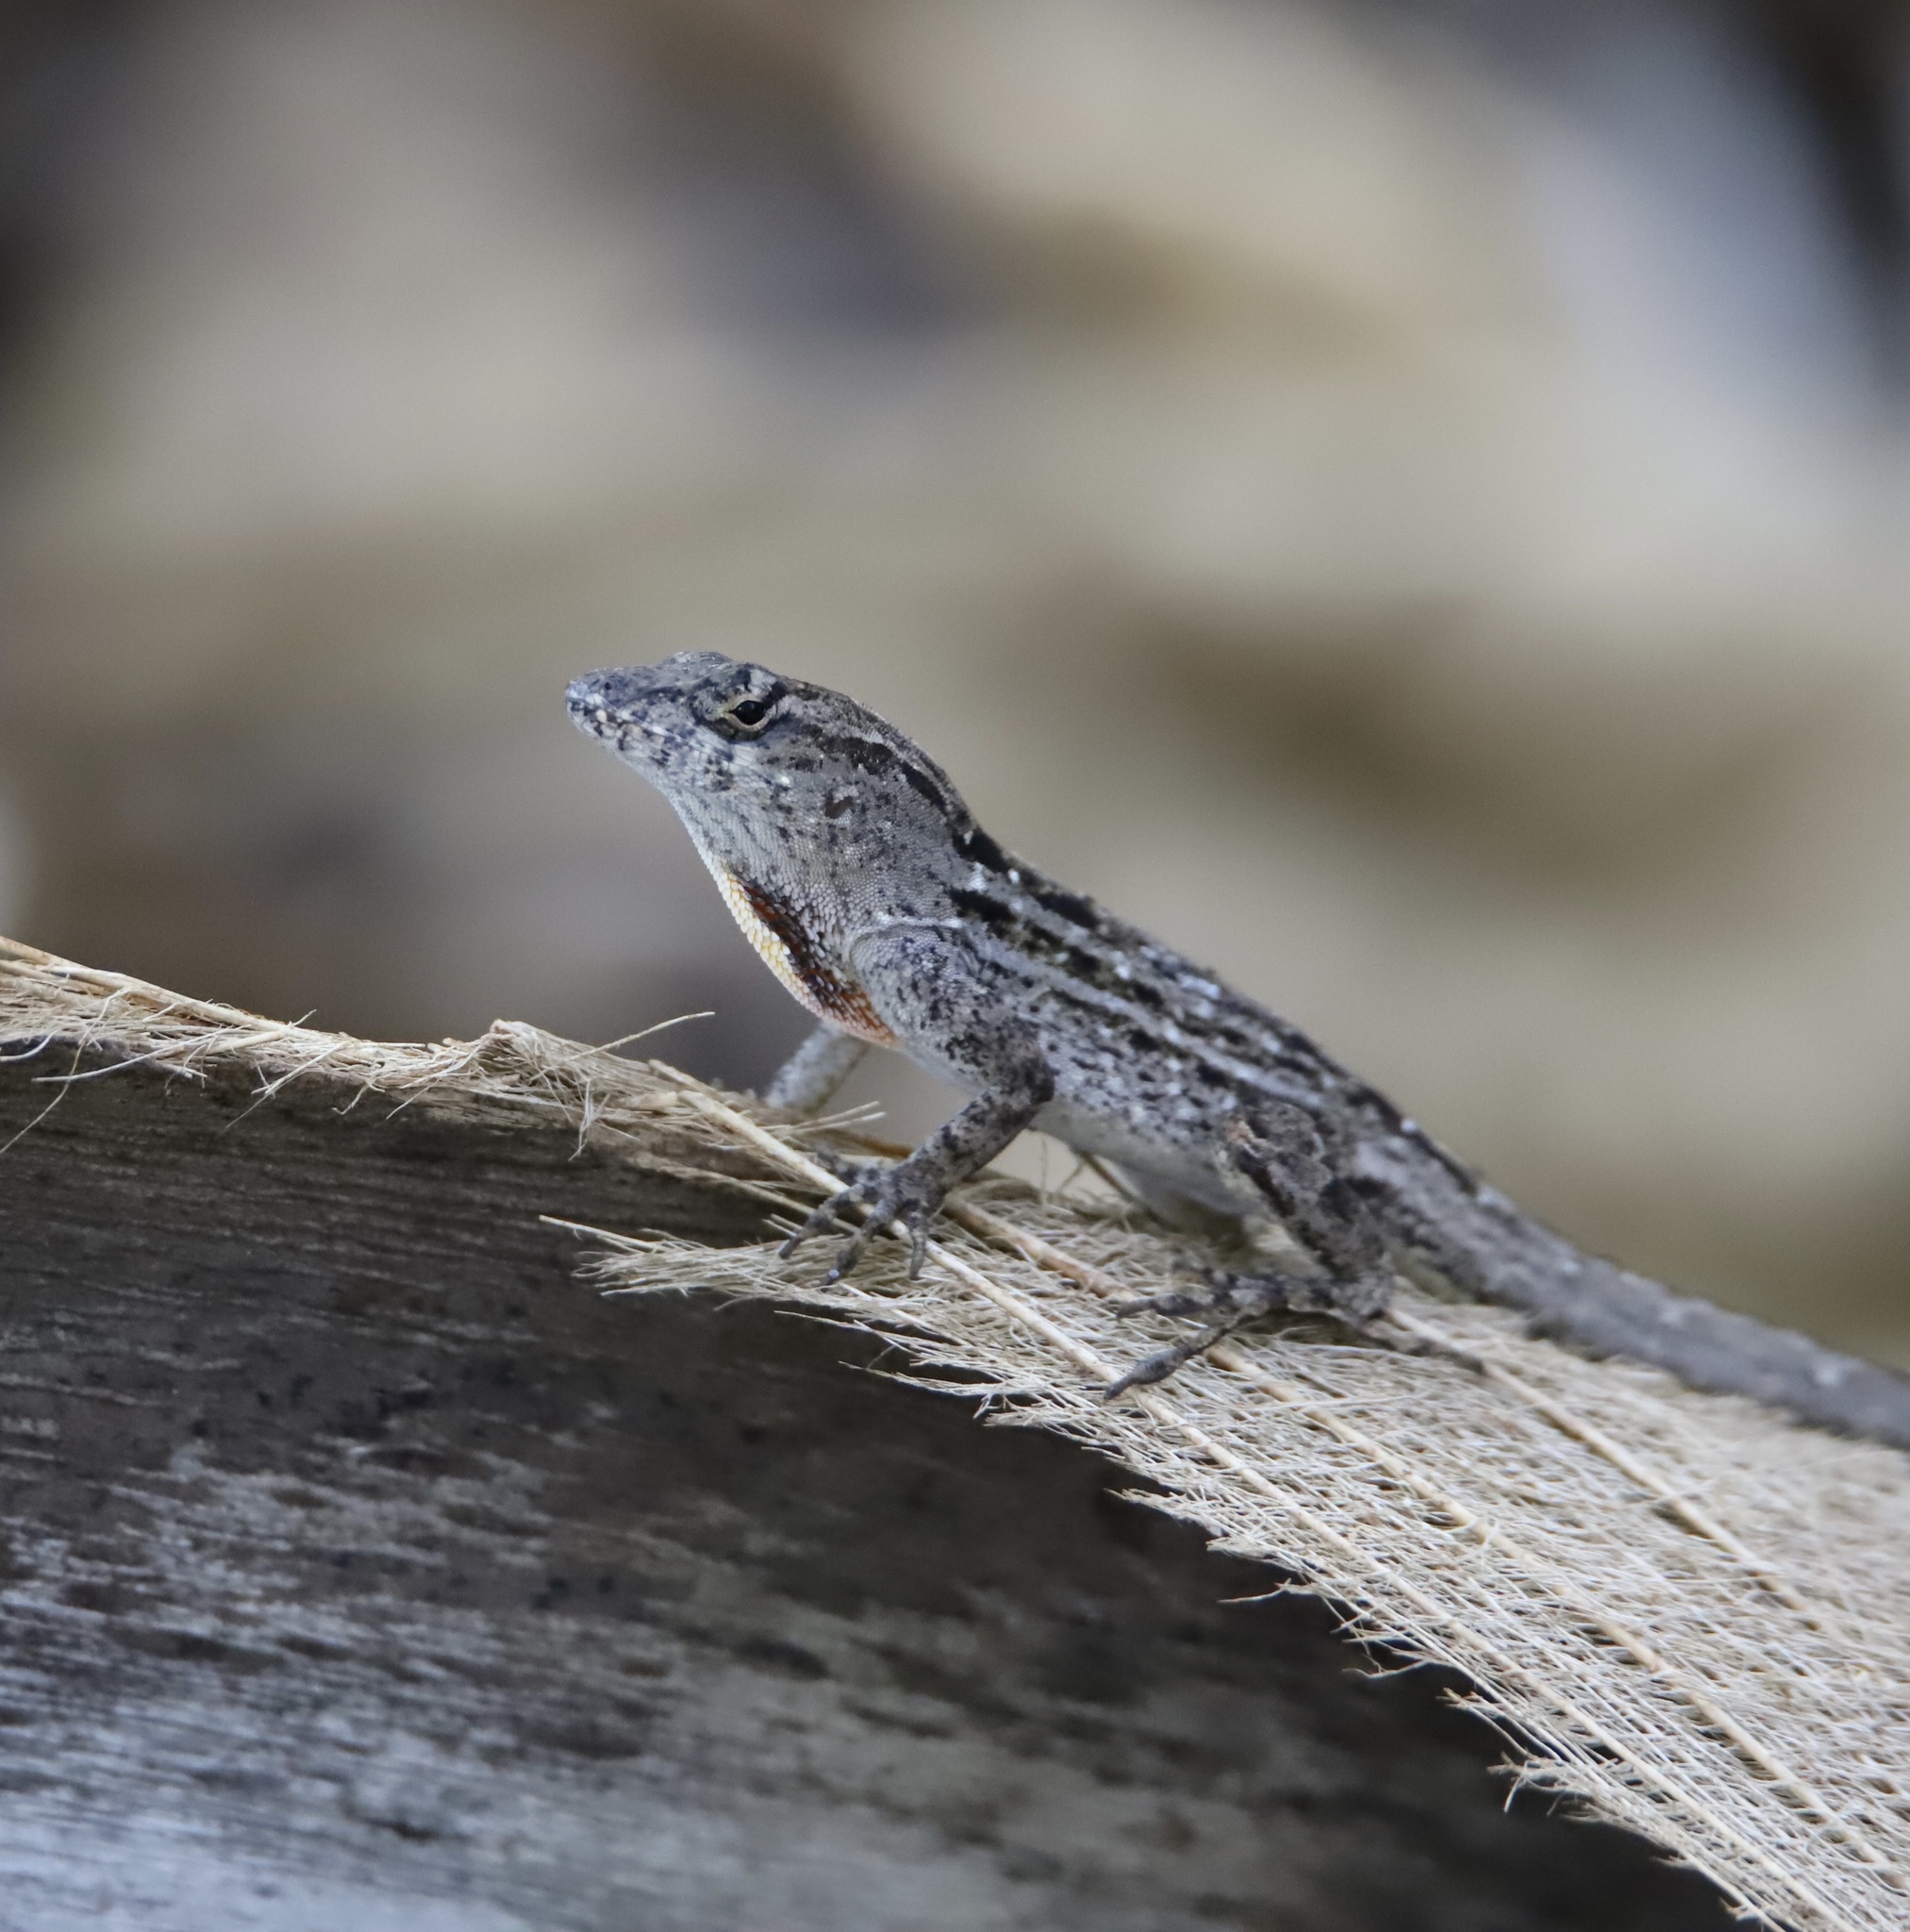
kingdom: Animalia
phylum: Chordata
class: Squamata
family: Dactyloidae
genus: Anolis
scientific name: Anolis sagrei
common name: Brown anole
